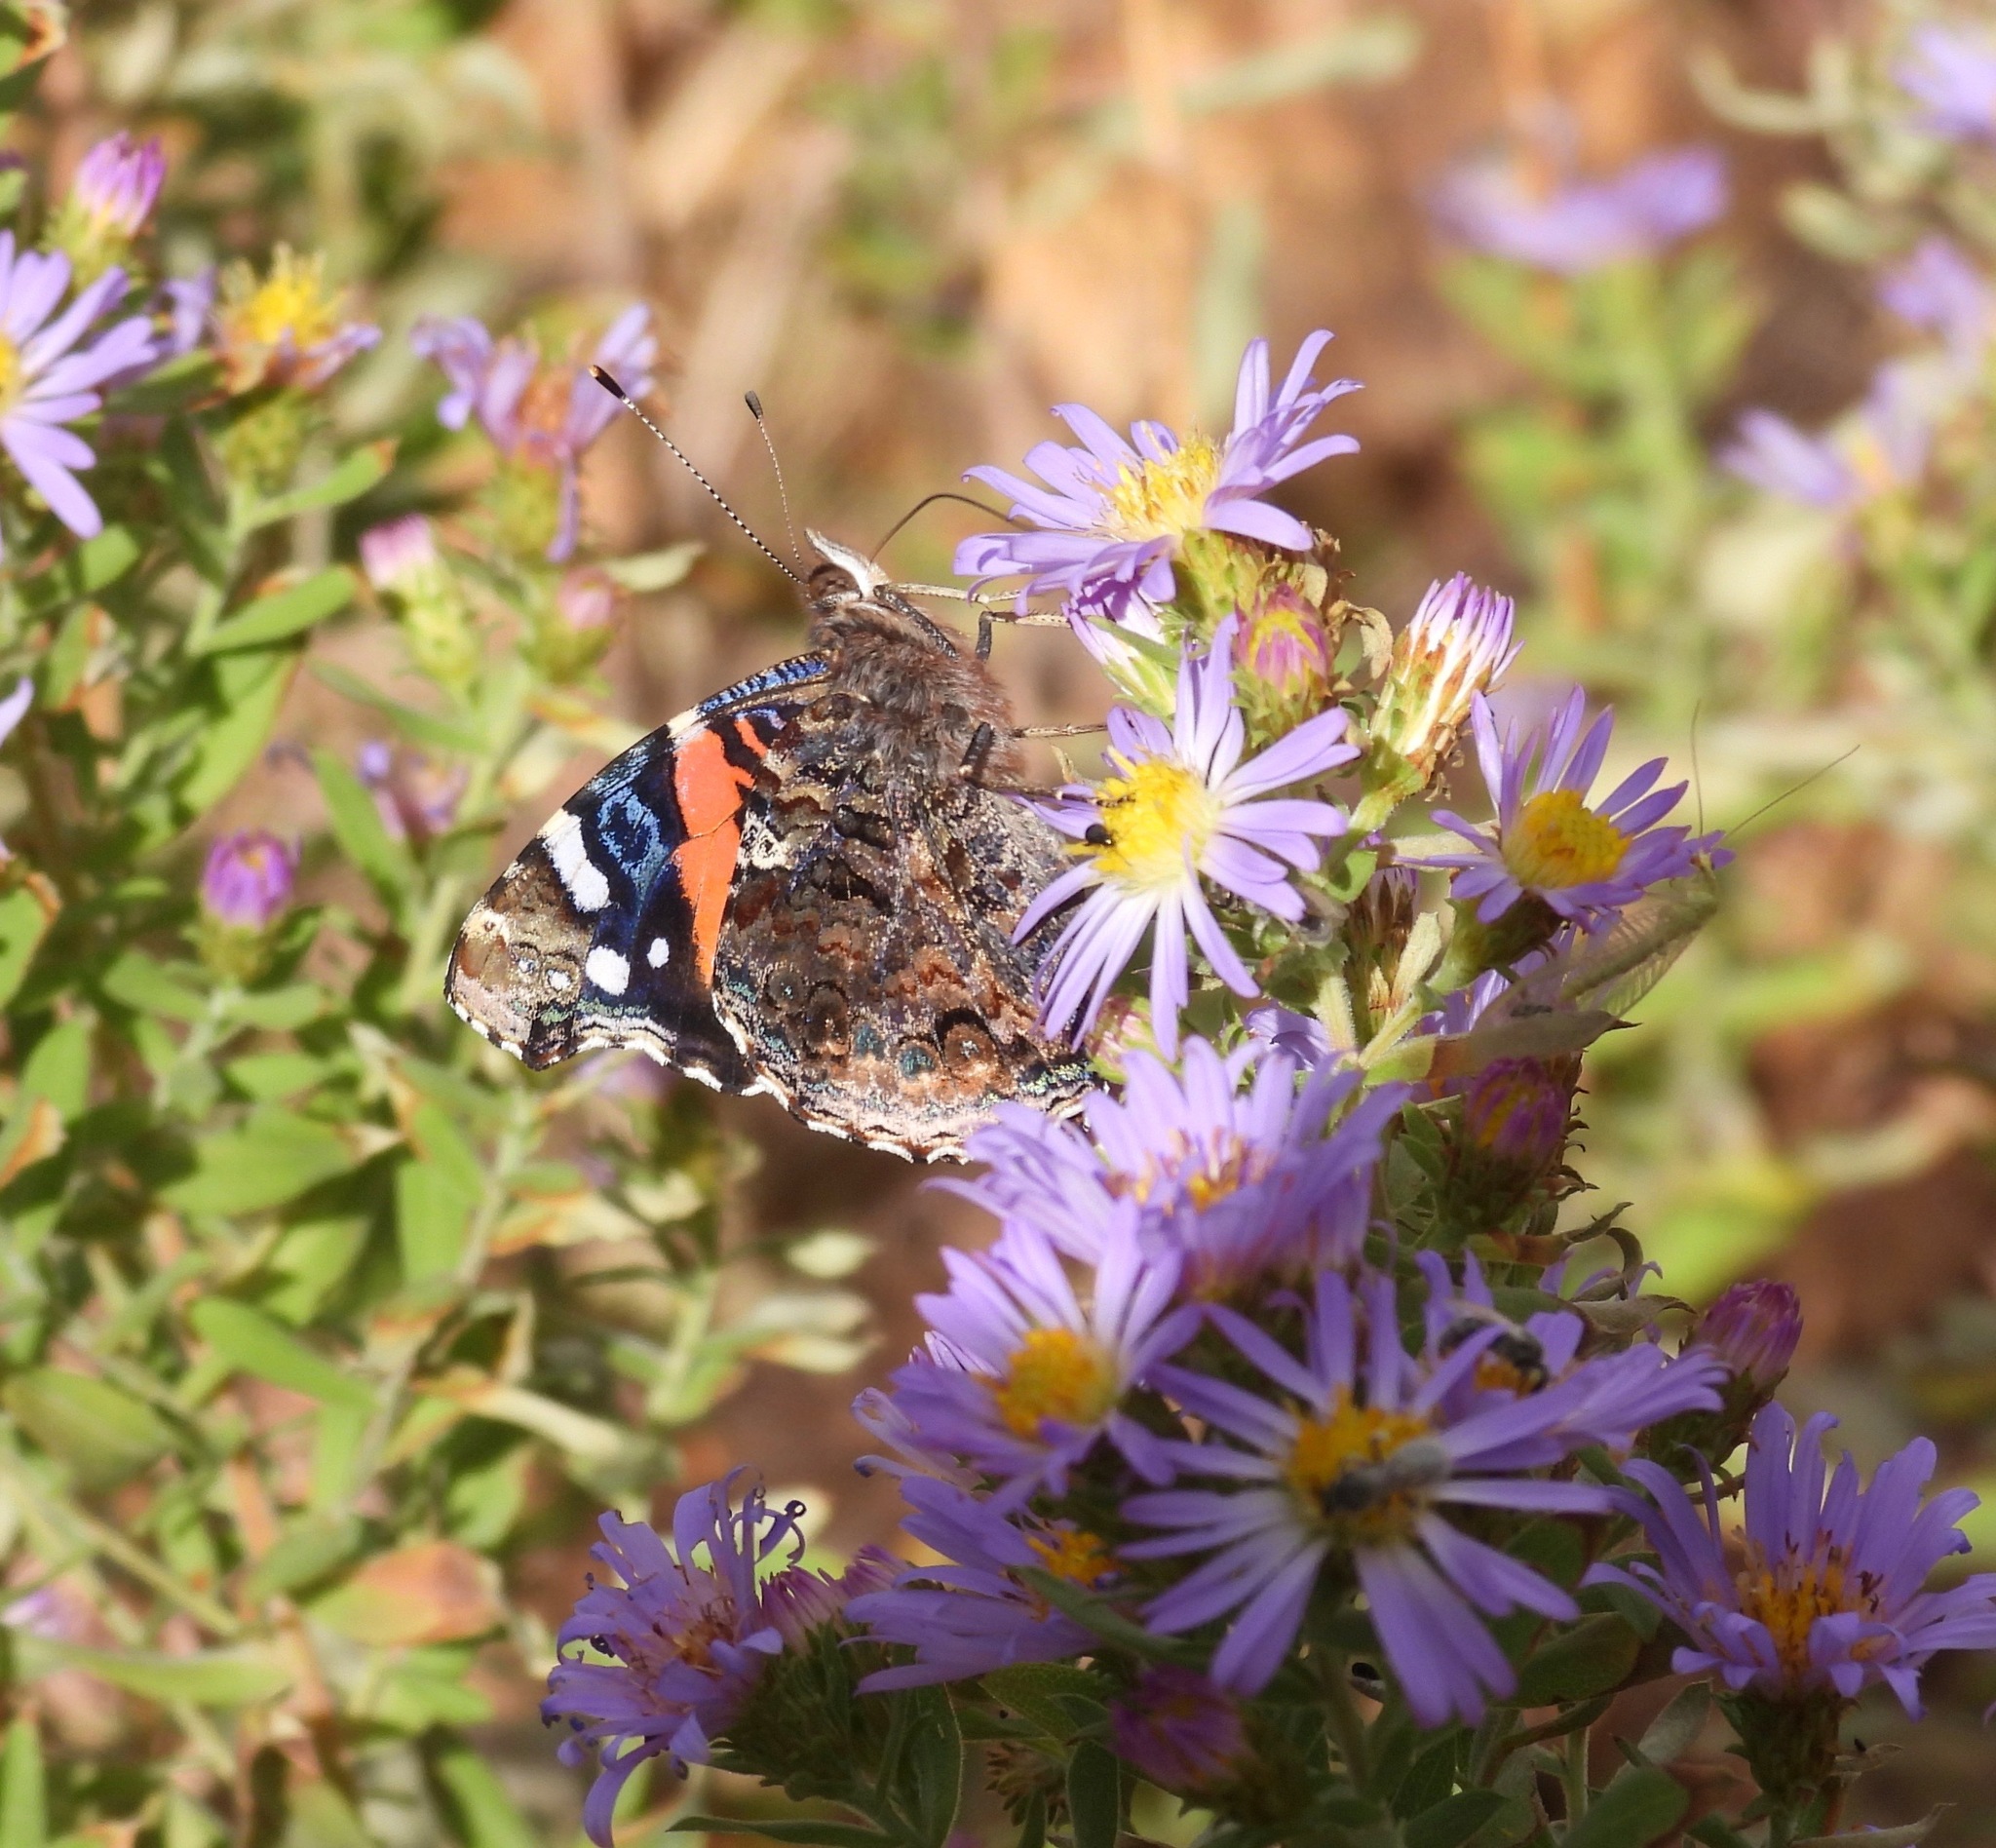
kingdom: Animalia
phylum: Arthropoda
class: Insecta
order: Lepidoptera
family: Nymphalidae
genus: Vanessa
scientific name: Vanessa atalanta
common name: Red admiral
